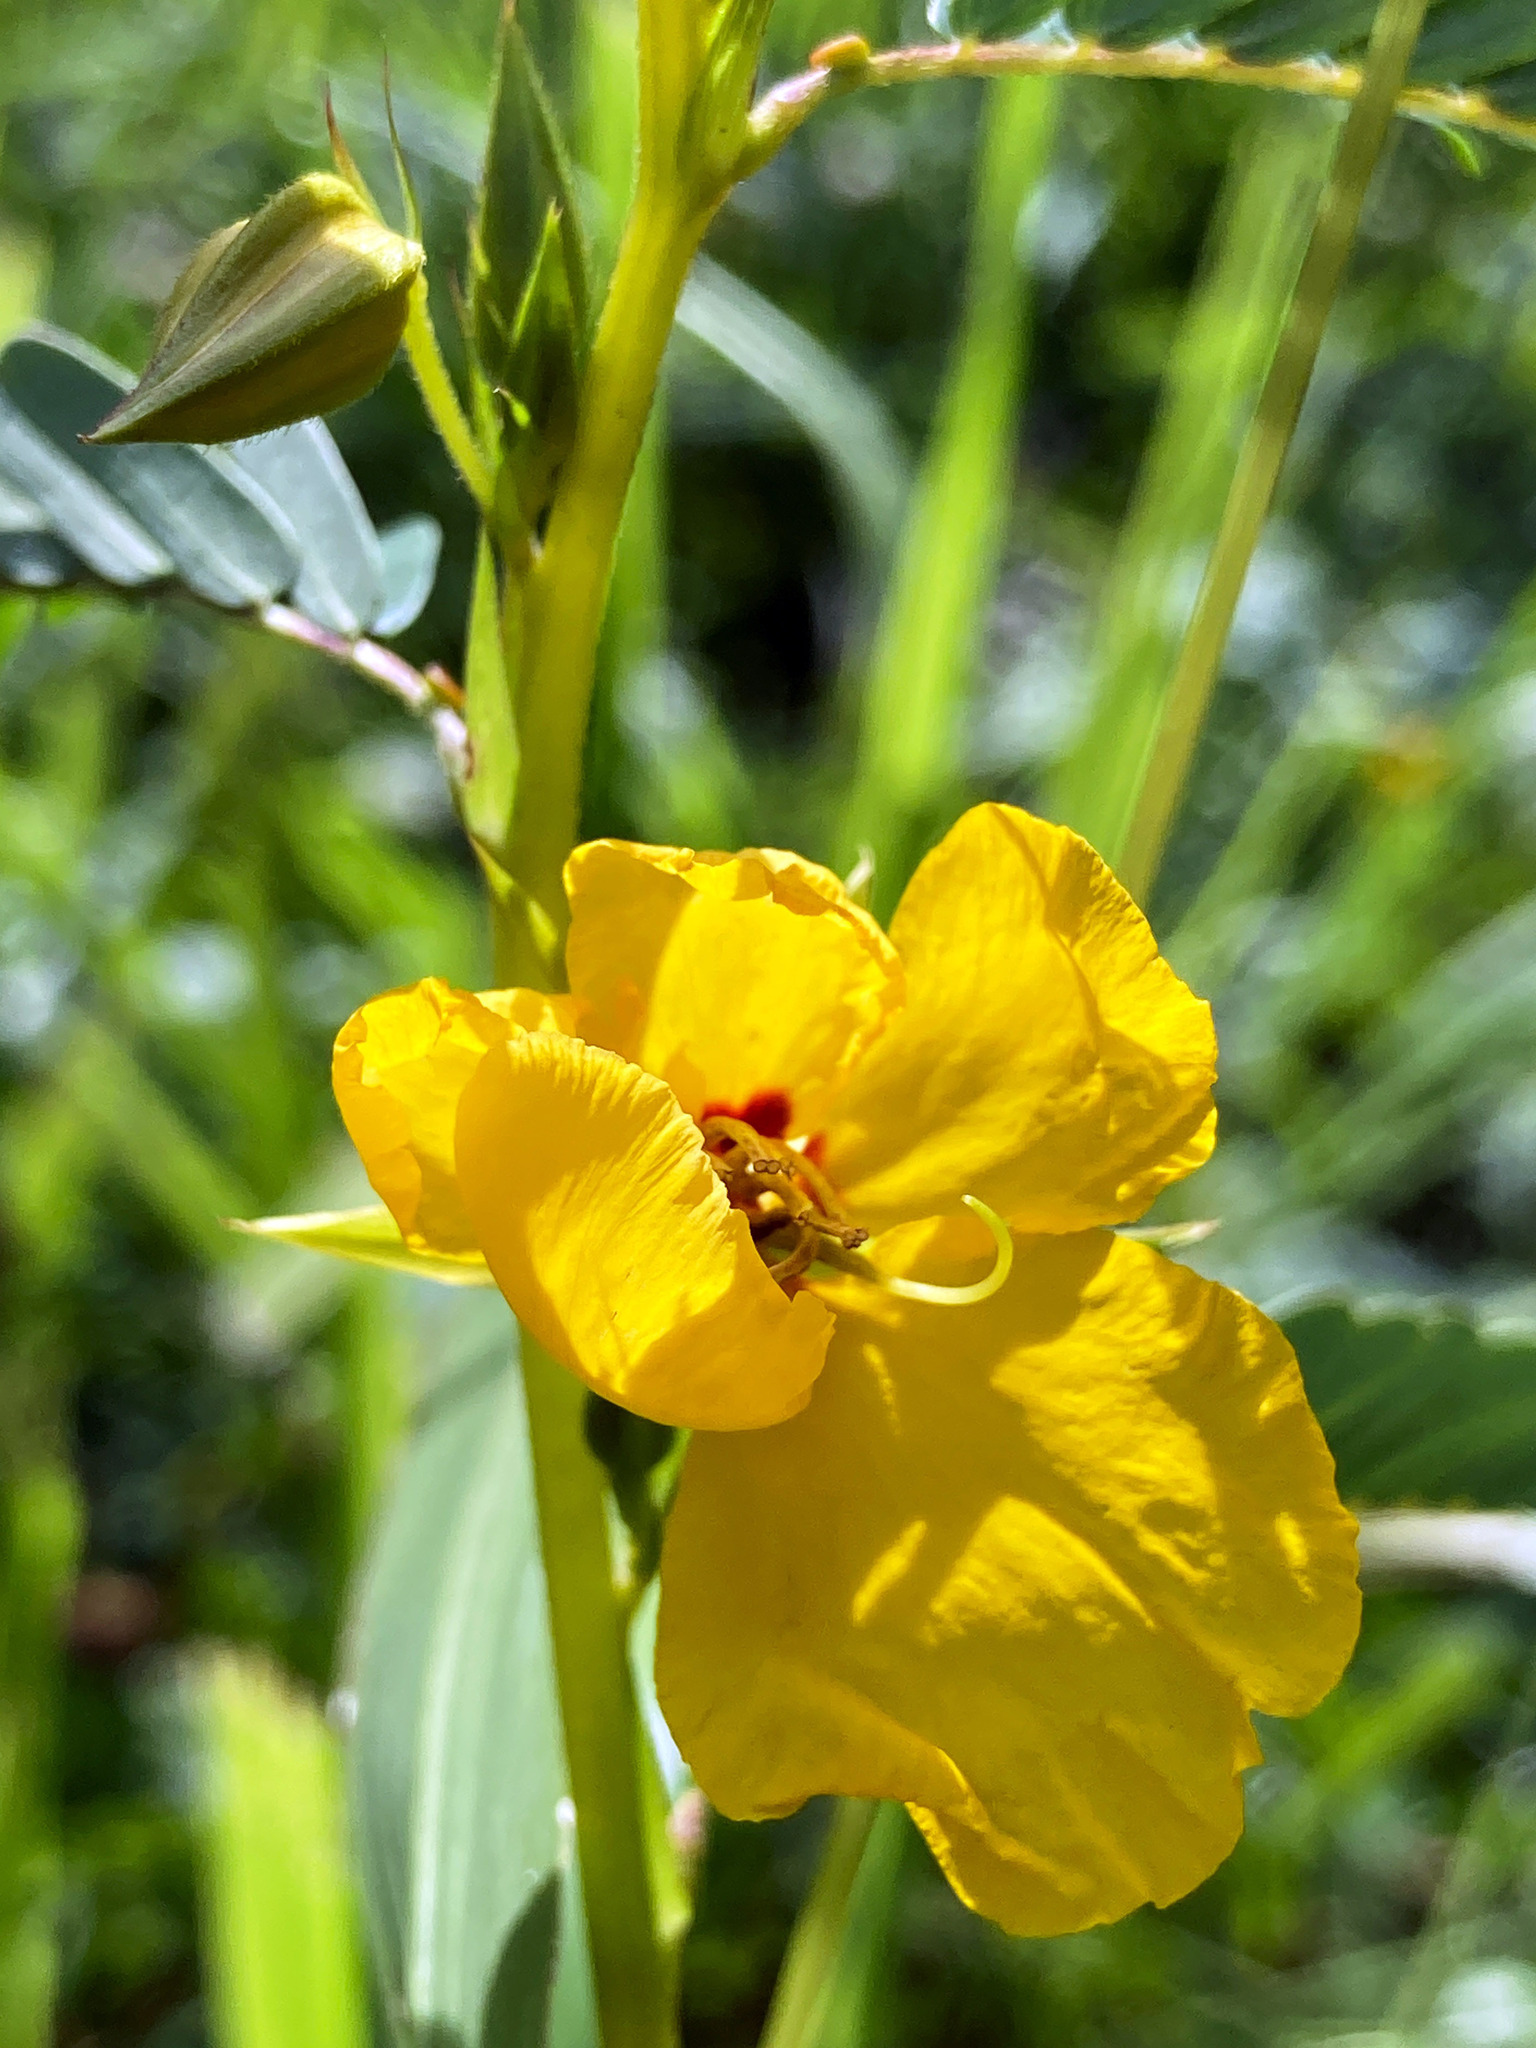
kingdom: Plantae
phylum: Tracheophyta
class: Magnoliopsida
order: Fabales
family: Fabaceae
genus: Chamaecrista
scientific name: Chamaecrista fasciculata
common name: Golden cassia
